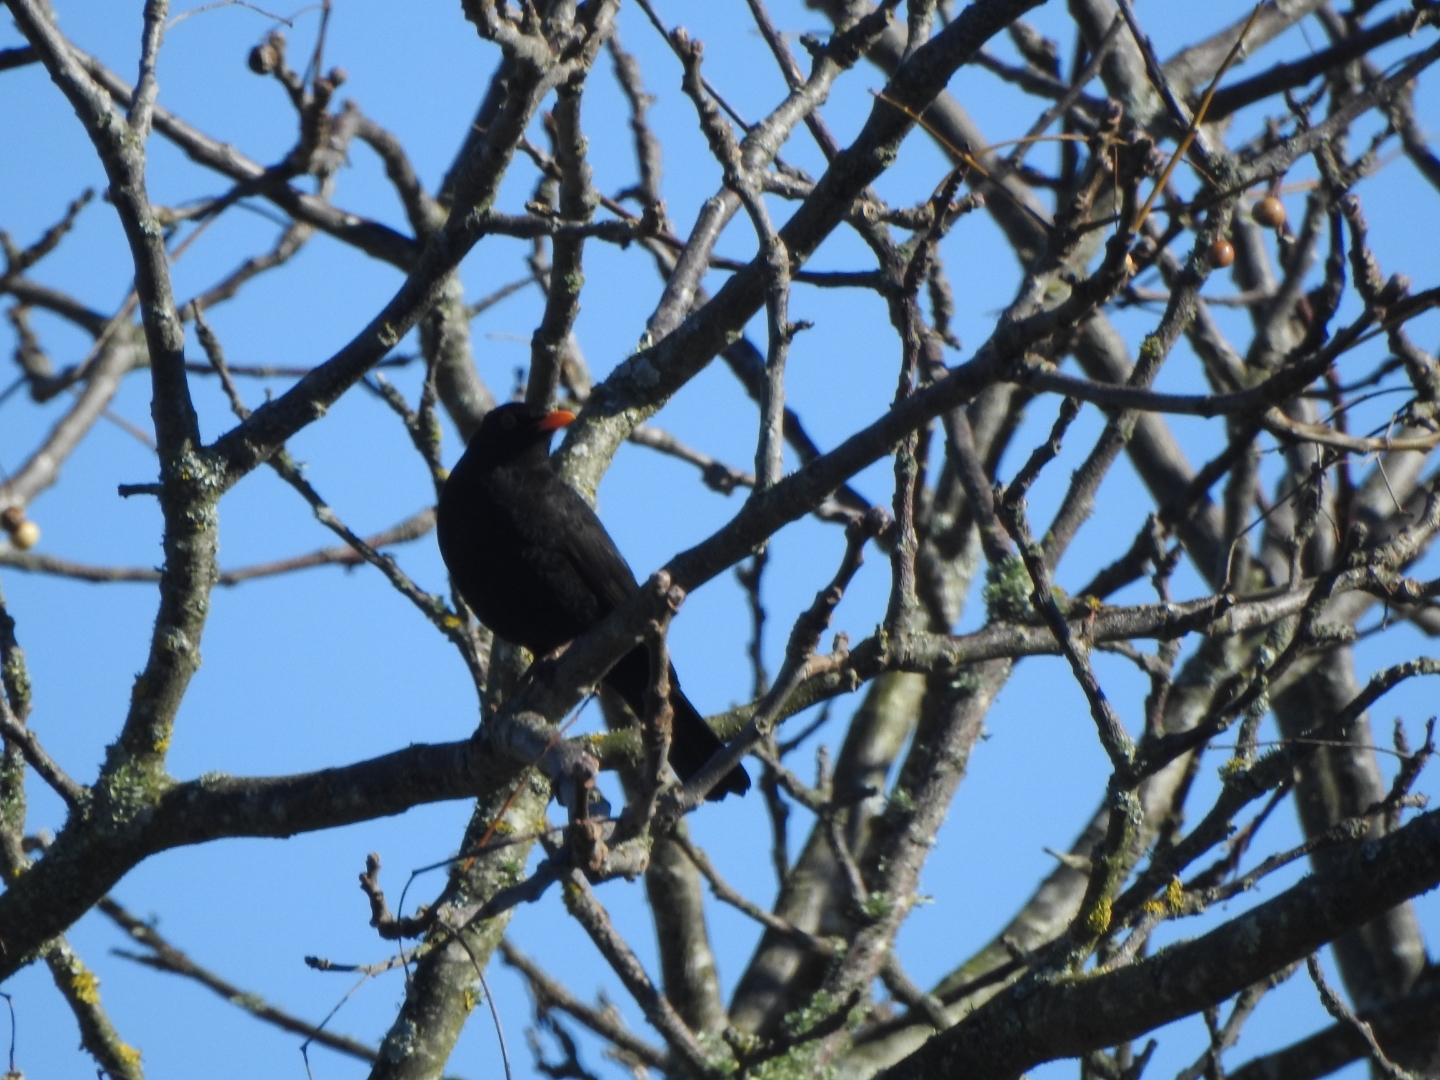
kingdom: Animalia
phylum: Chordata
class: Aves
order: Passeriformes
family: Turdidae
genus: Turdus
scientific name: Turdus merula
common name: Common blackbird
